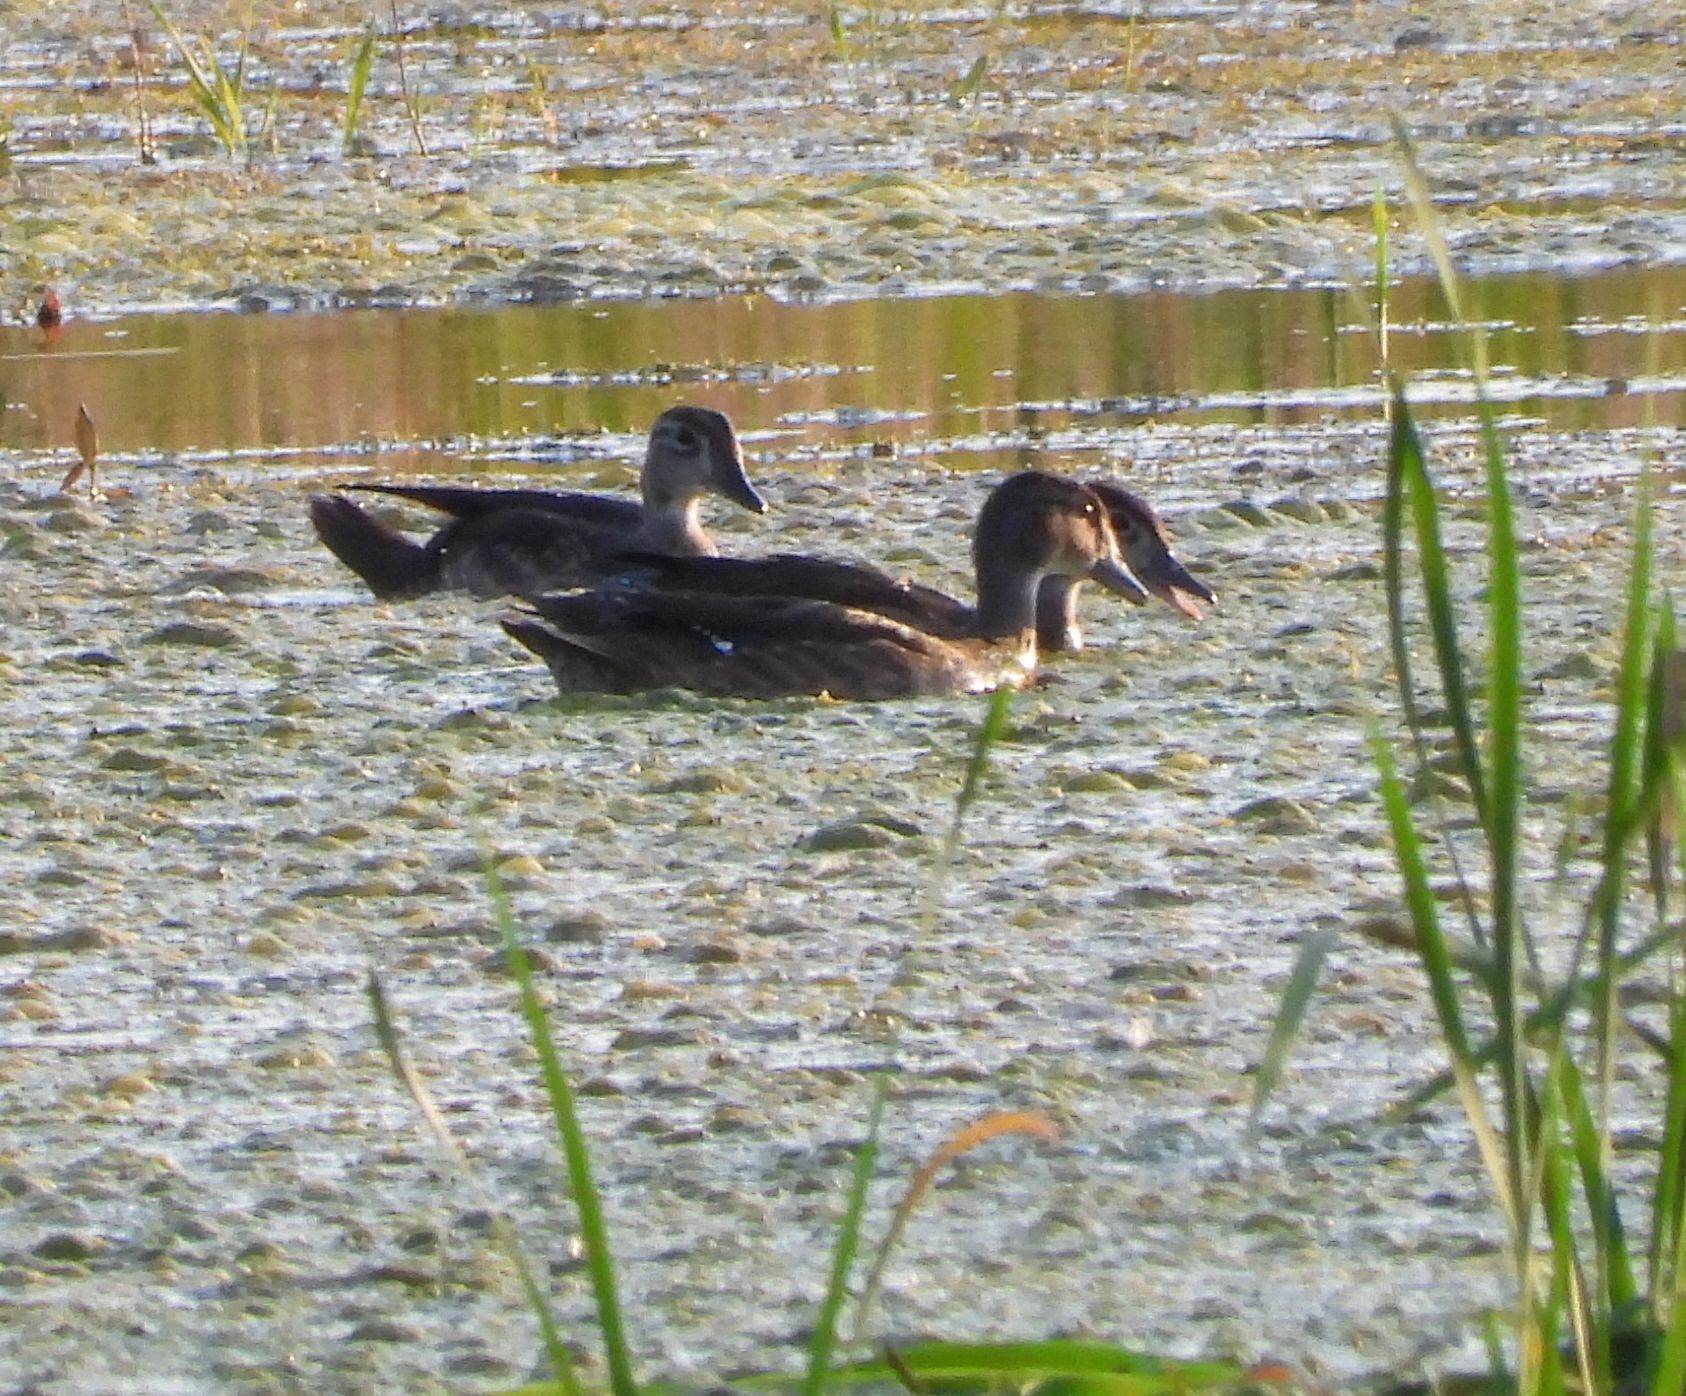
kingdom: Animalia
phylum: Chordata
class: Aves
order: Anseriformes
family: Anatidae
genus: Aix
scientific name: Aix sponsa
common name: Wood duck
